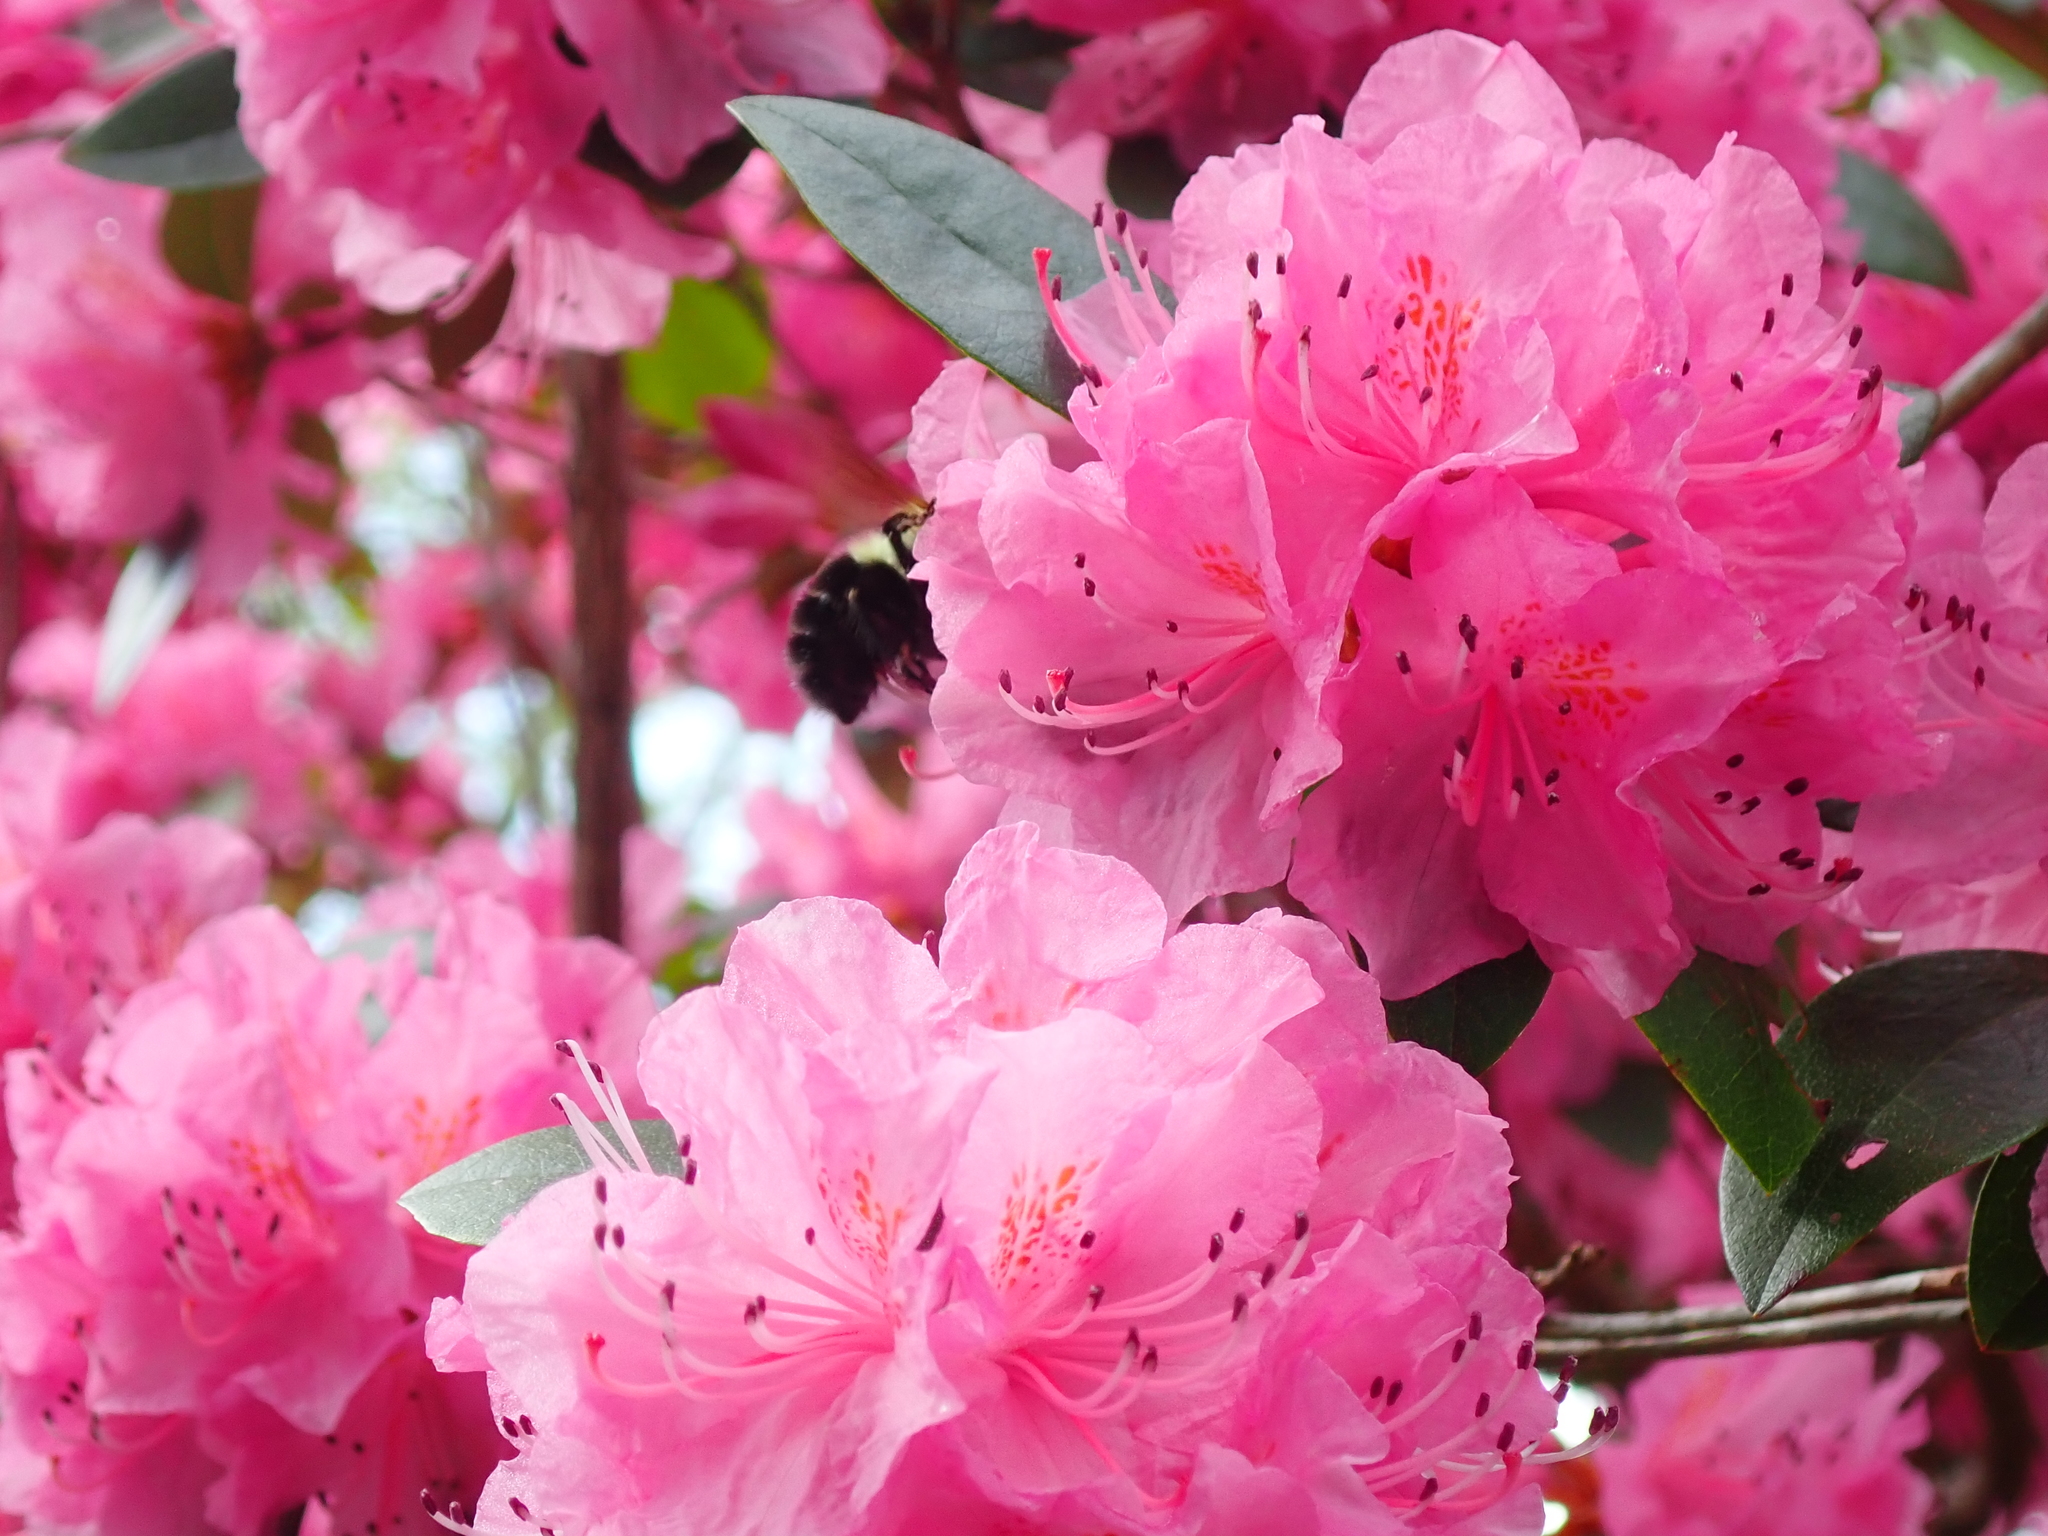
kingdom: Animalia
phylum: Arthropoda
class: Insecta
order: Hymenoptera
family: Apidae
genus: Bombus
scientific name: Bombus bimaculatus
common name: Two-spotted bumble bee
